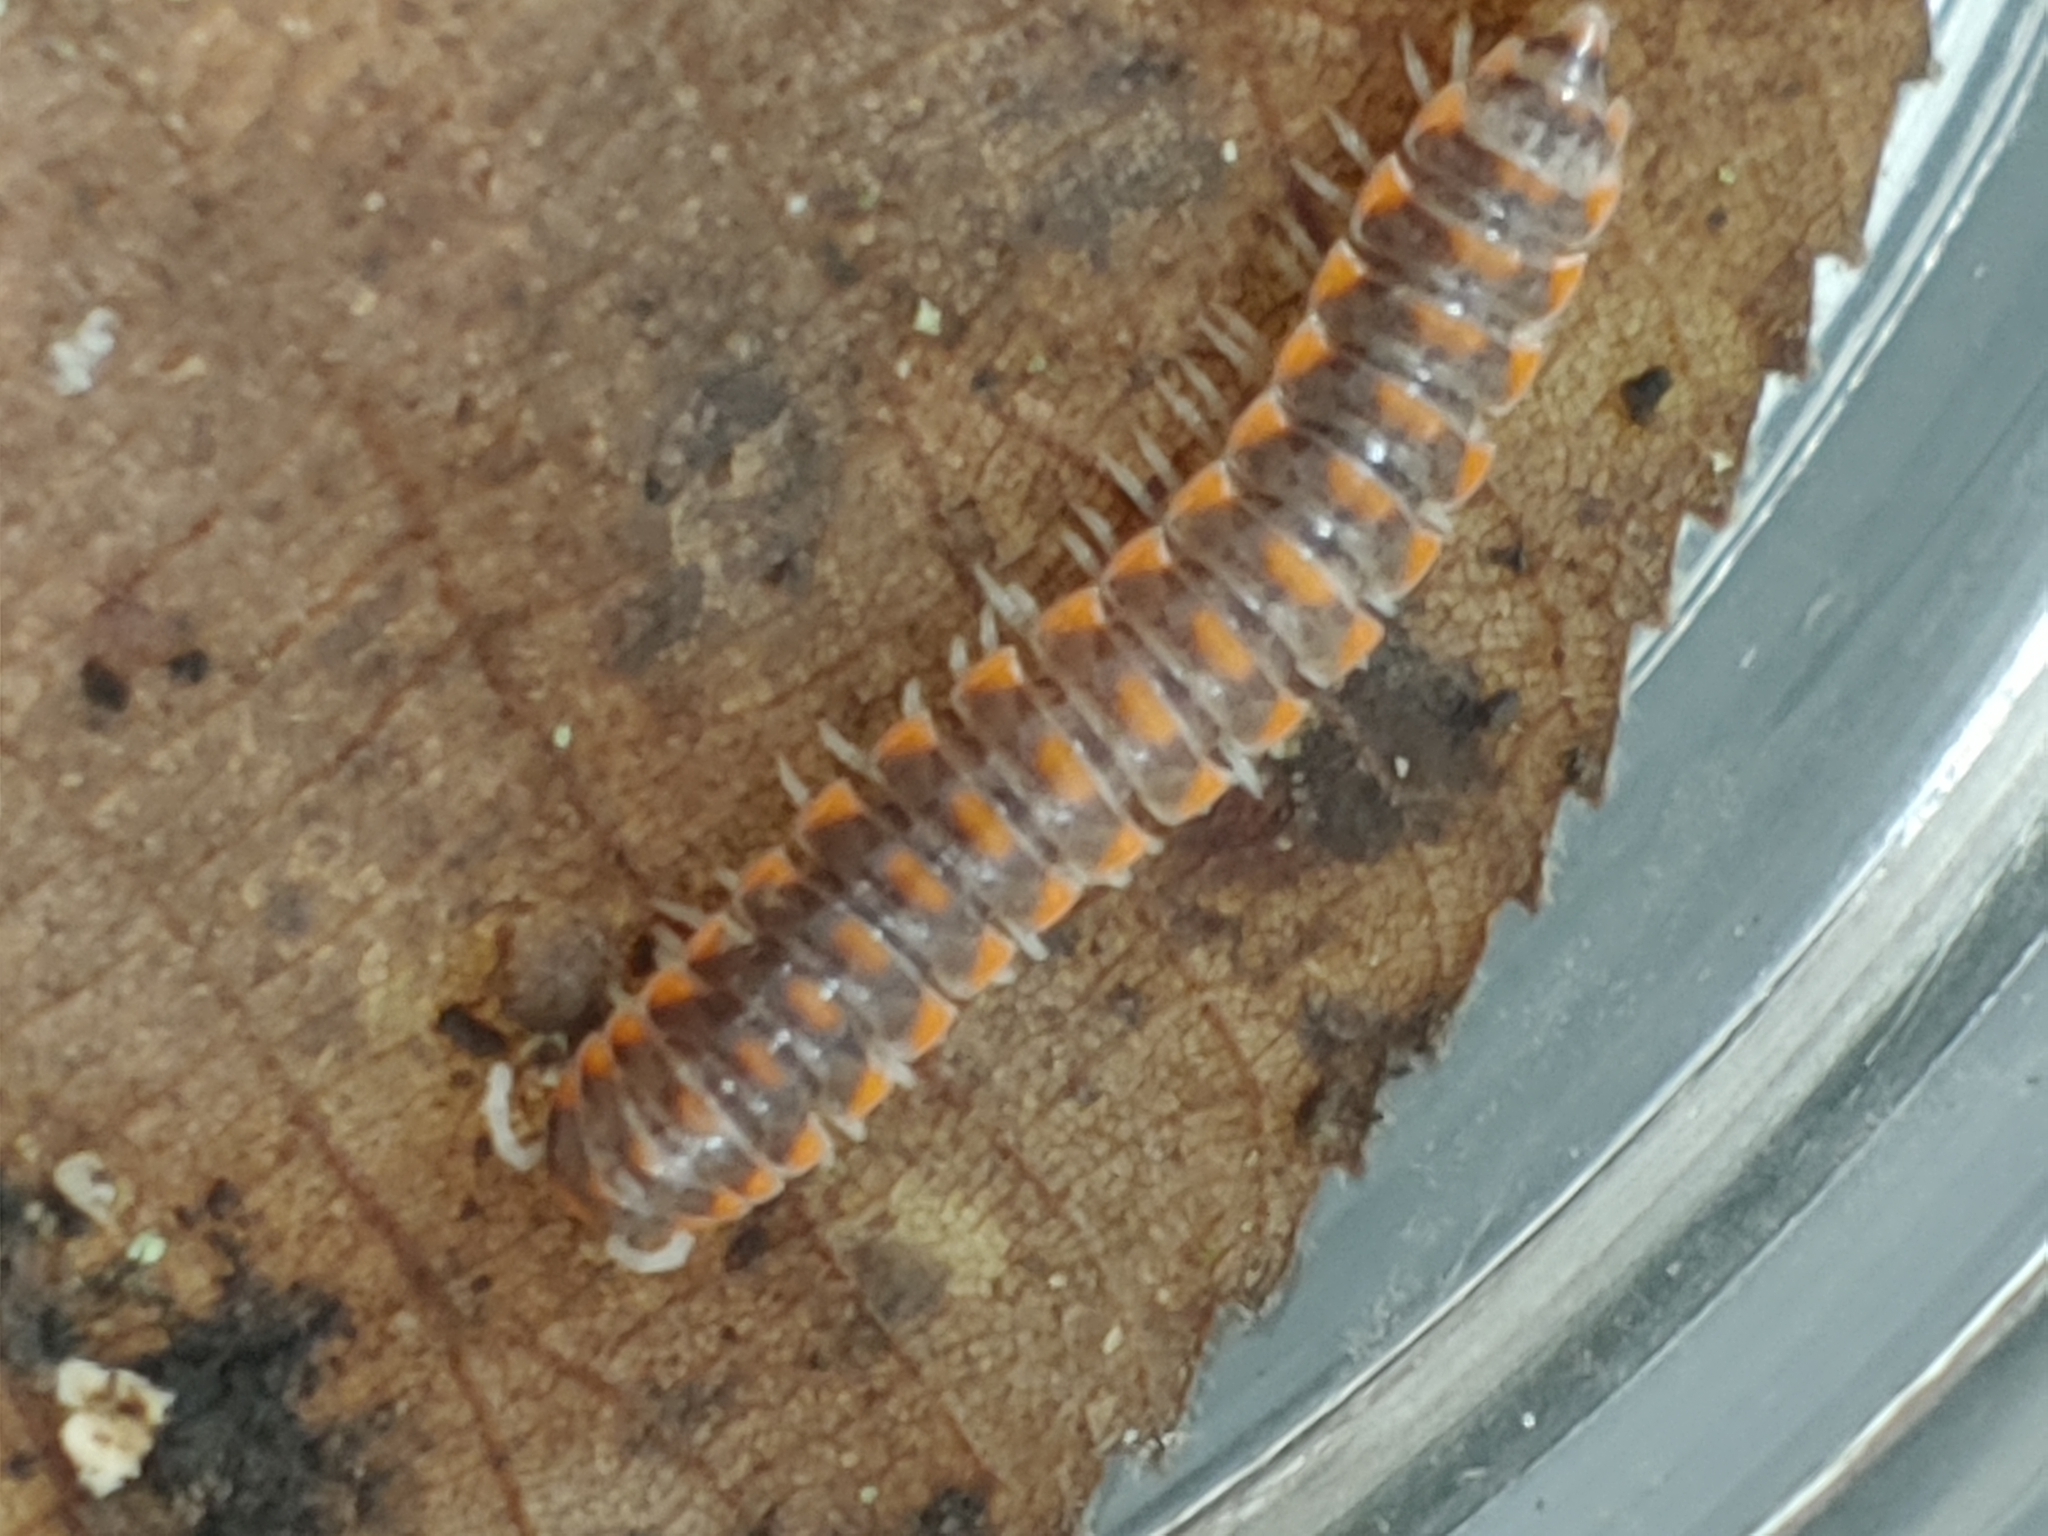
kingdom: Animalia
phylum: Arthropoda
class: Diplopoda
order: Polydesmida
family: Xystodesmidae
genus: Euryurus
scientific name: Euryurus leachii
